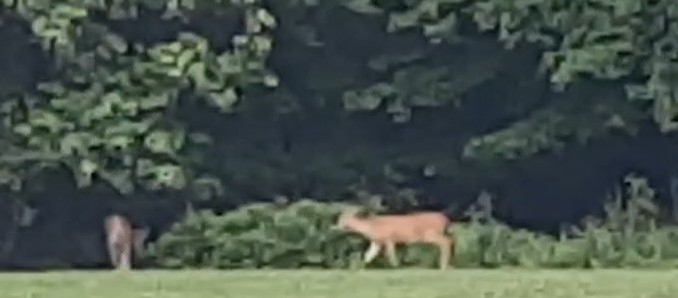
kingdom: Animalia
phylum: Chordata
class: Mammalia
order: Artiodactyla
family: Cervidae
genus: Odocoileus
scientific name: Odocoileus virginianus
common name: White-tailed deer
